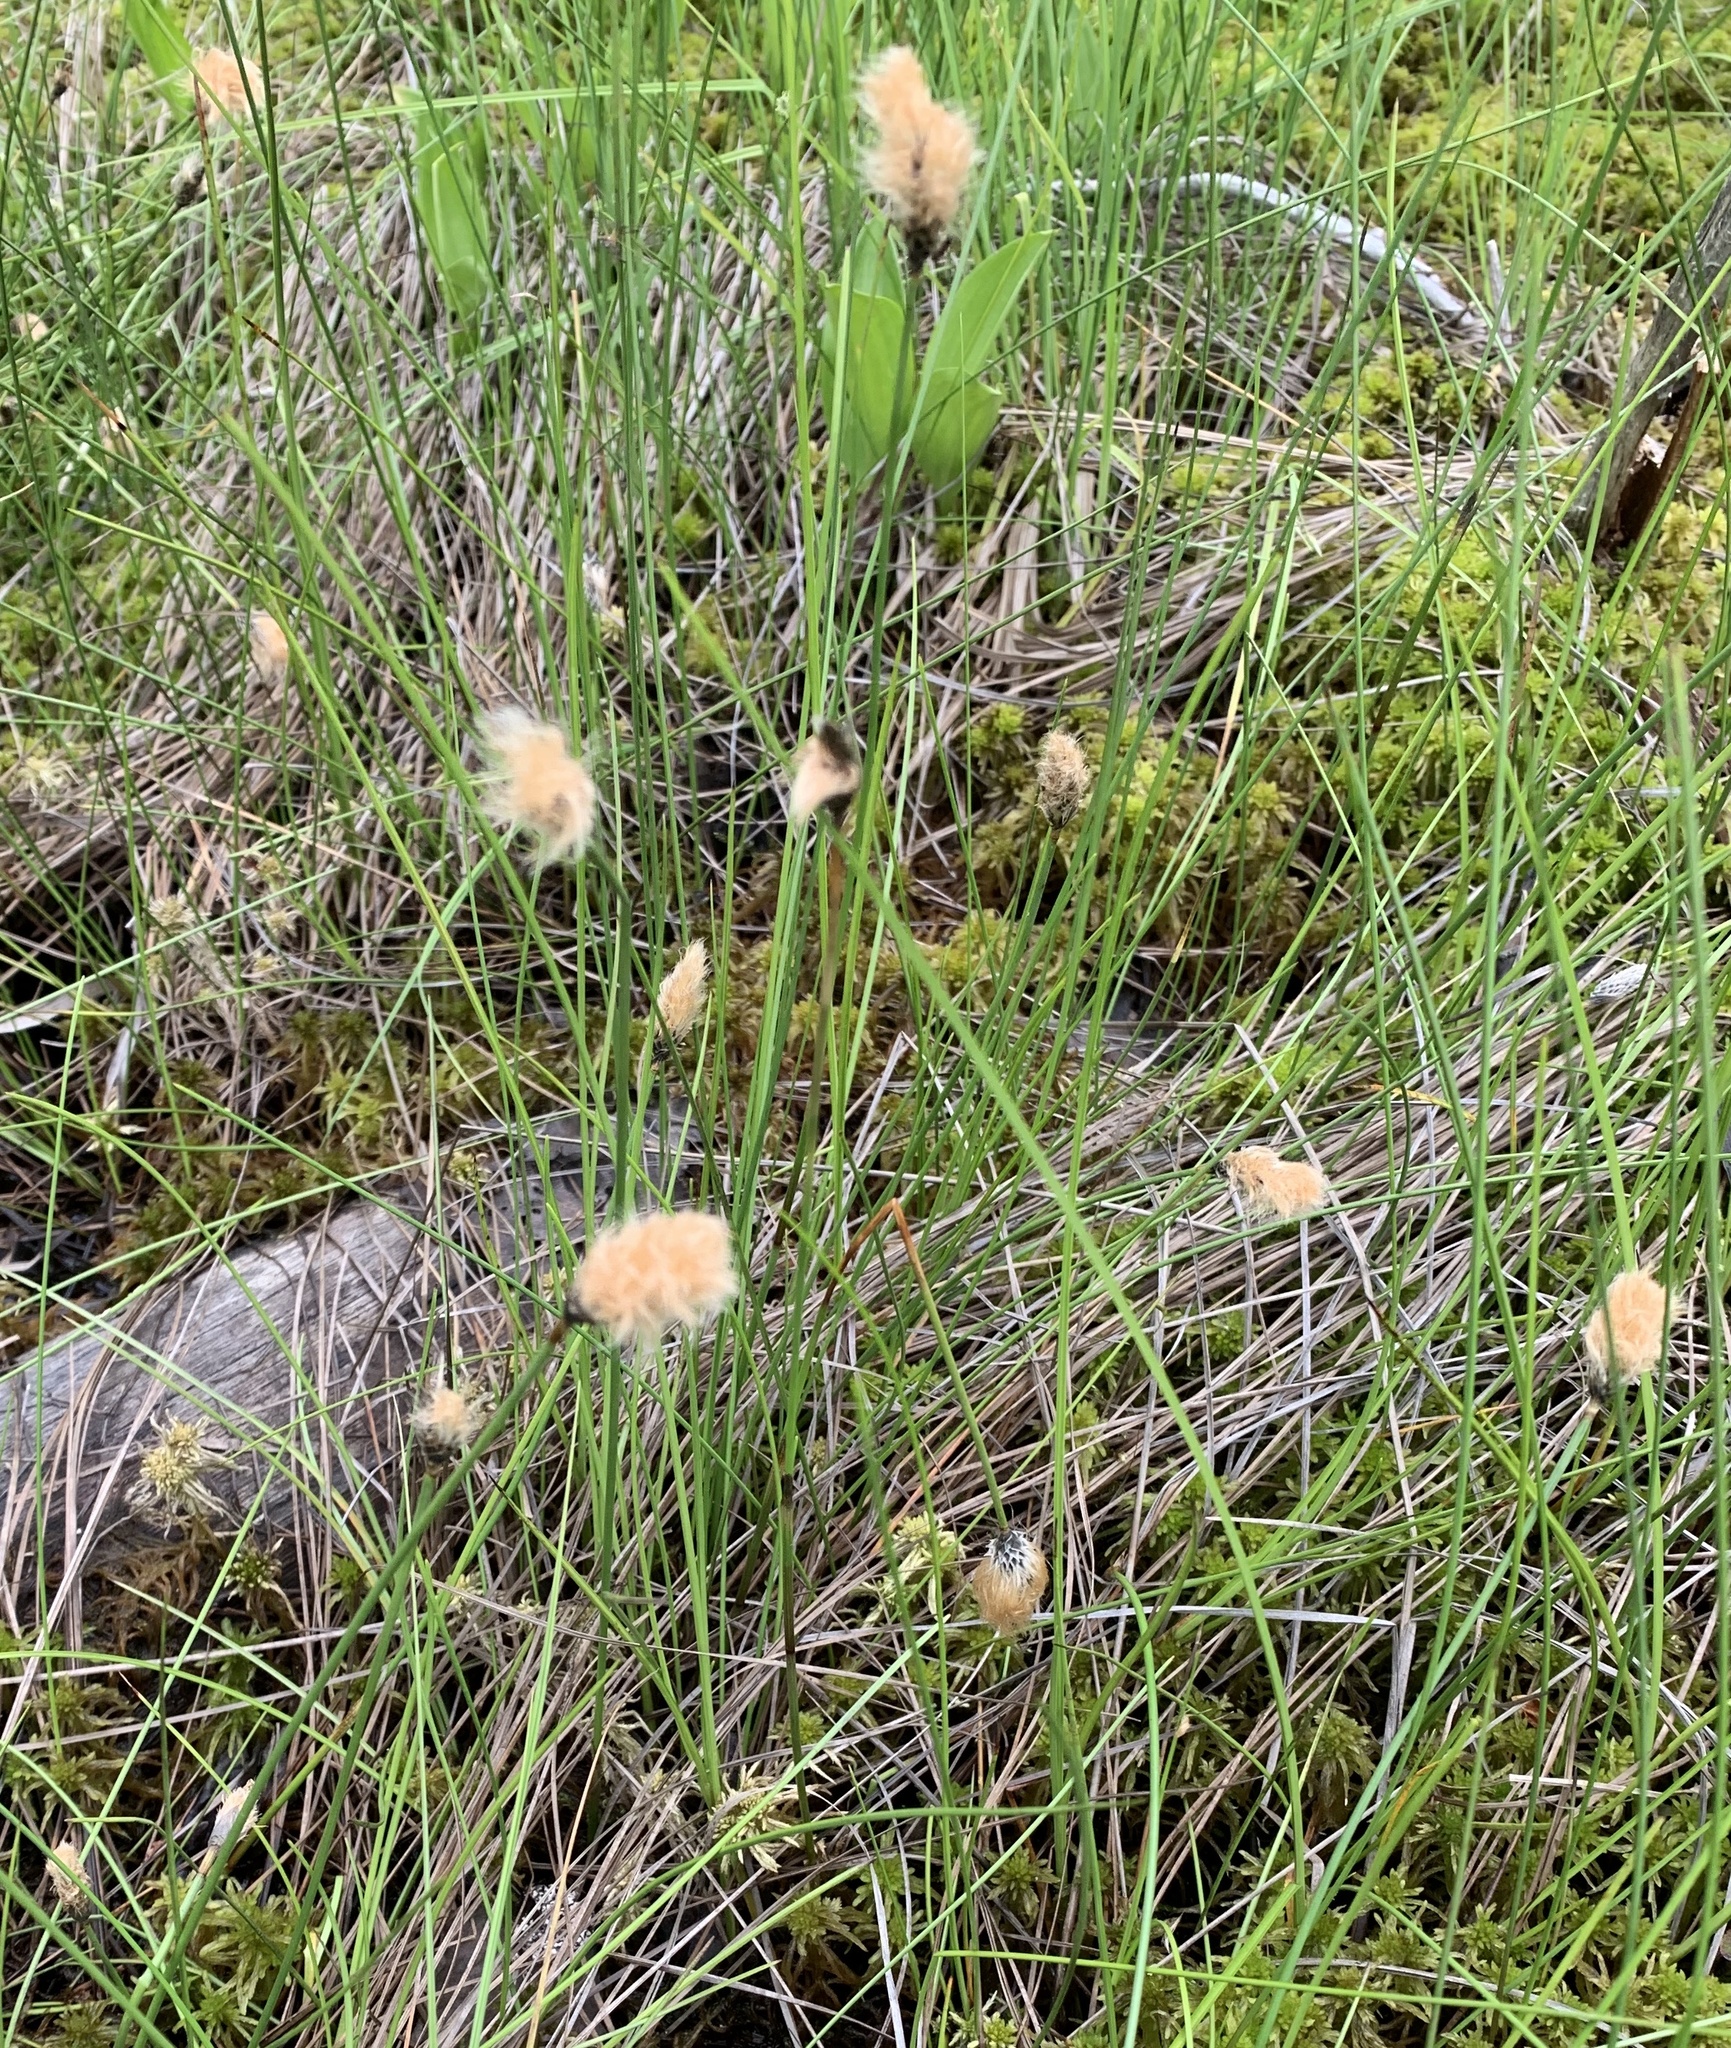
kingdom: Plantae
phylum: Tracheophyta
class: Liliopsida
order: Poales
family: Cyperaceae
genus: Eriophorum
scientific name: Eriophorum chamissonis
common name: Chamisso's cottongrass
